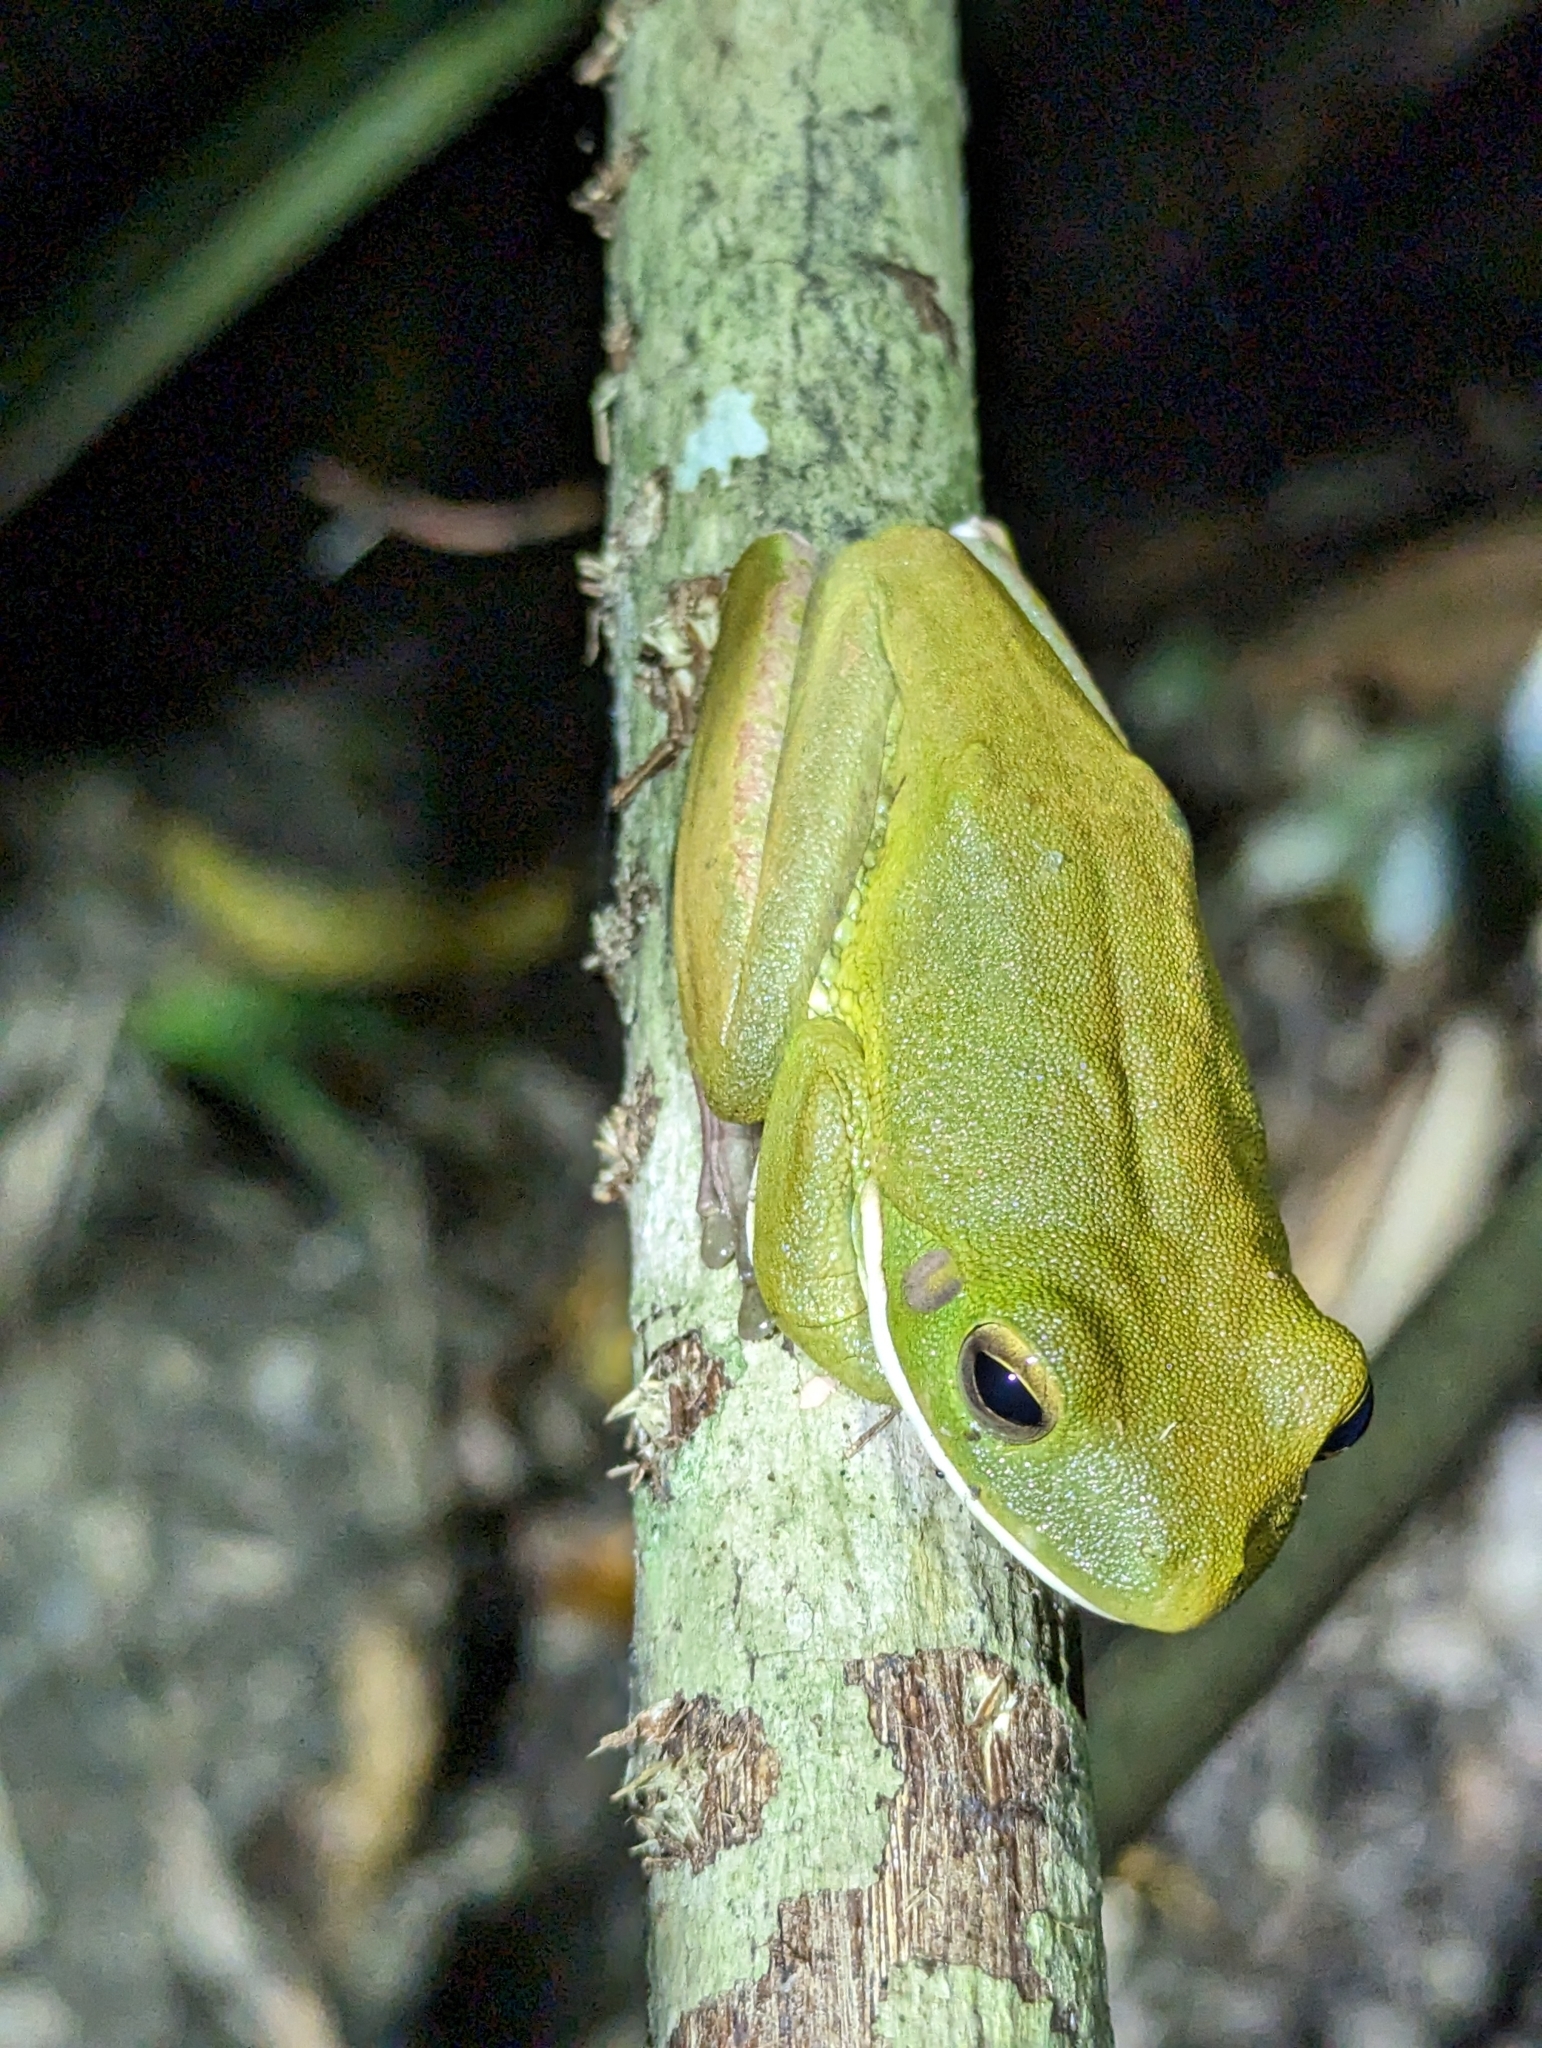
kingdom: Animalia
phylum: Chordata
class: Amphibia
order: Anura
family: Pelodryadidae
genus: Nyctimystes
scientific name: Nyctimystes infrafrenatus
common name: Australian giant treefrog
